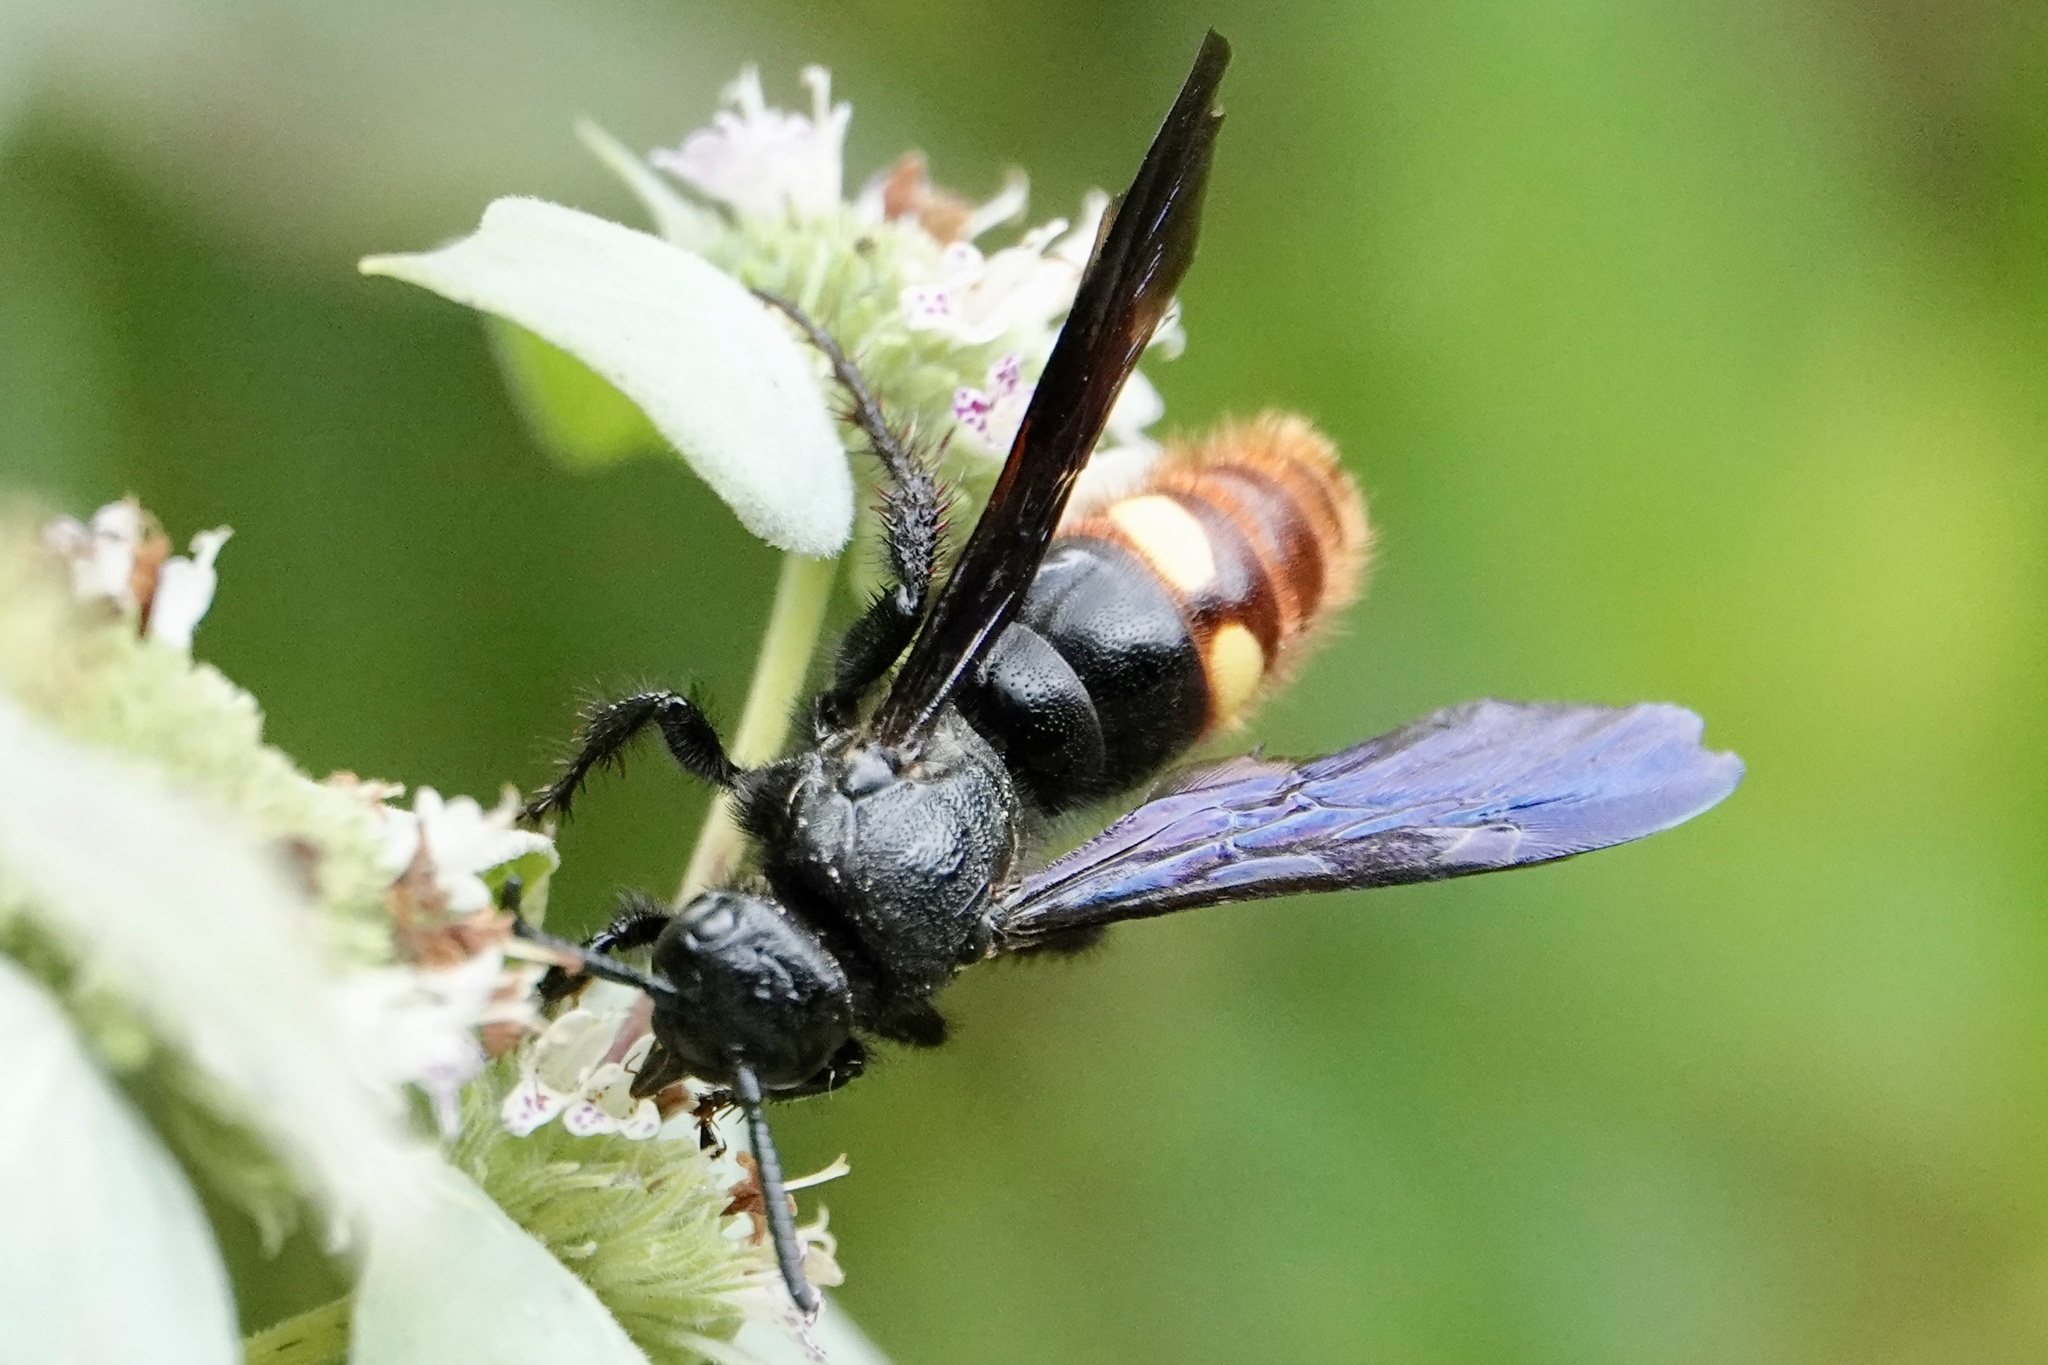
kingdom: Animalia
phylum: Arthropoda
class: Insecta
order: Hymenoptera
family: Scoliidae
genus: Scolia
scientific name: Scolia dubia
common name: Blue-winged scoliid wasp
